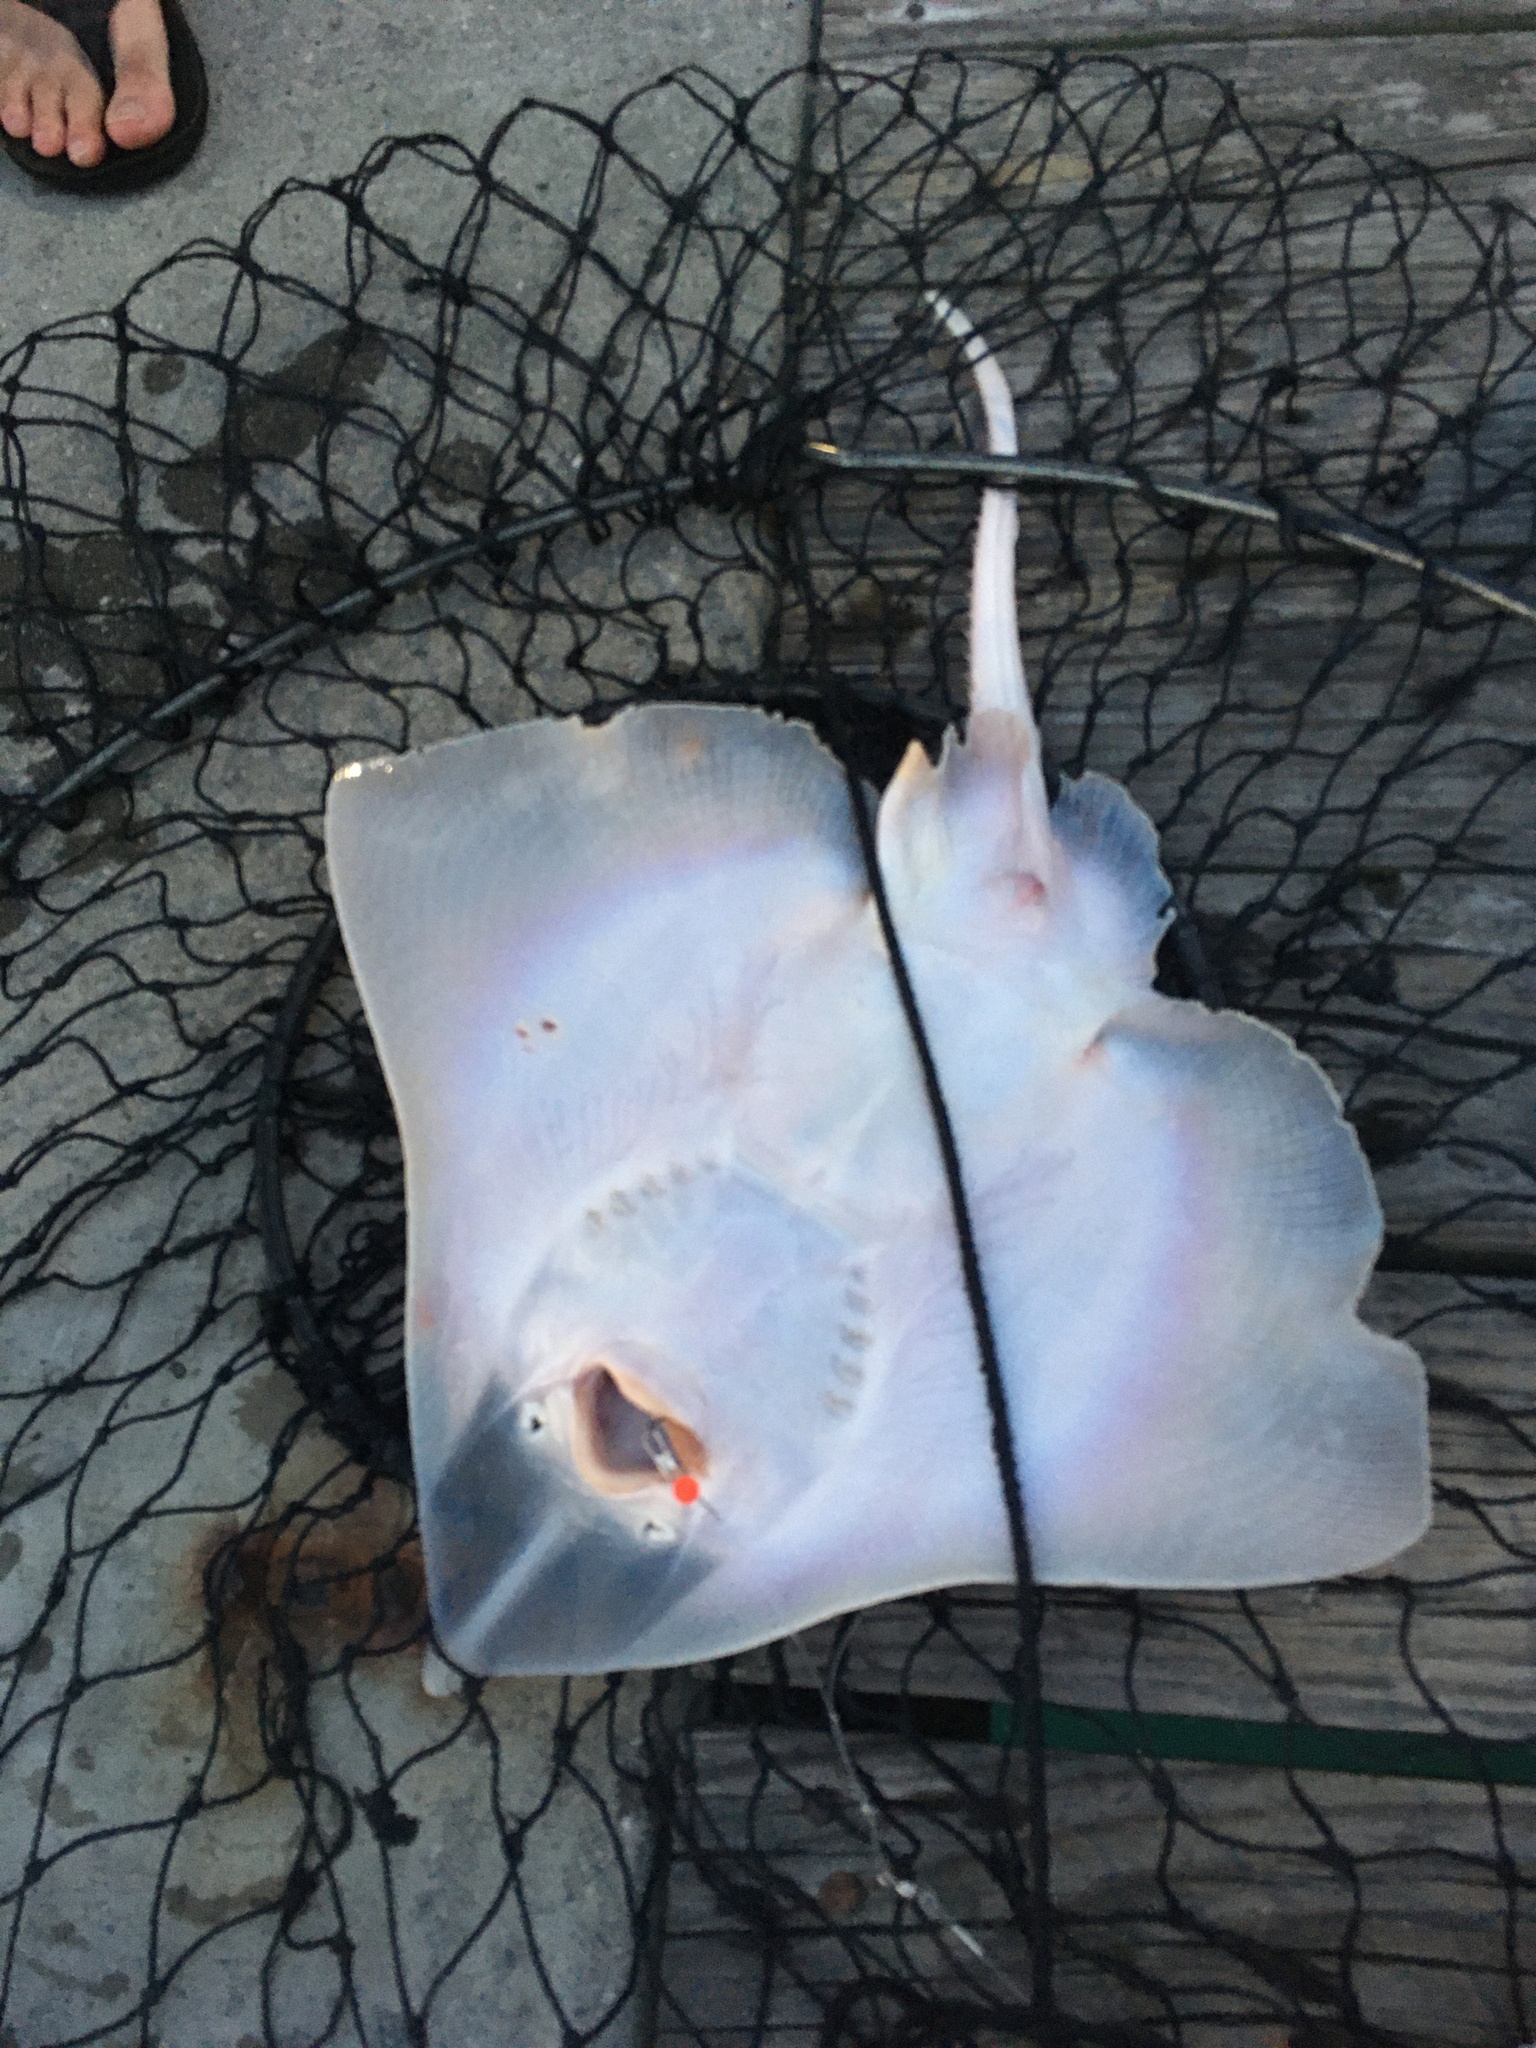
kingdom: Animalia
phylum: Chordata
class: Elasmobranchii
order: Rajiformes
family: Rajidae
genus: Raja
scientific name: Raja eglanteria
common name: Clearnose skate
